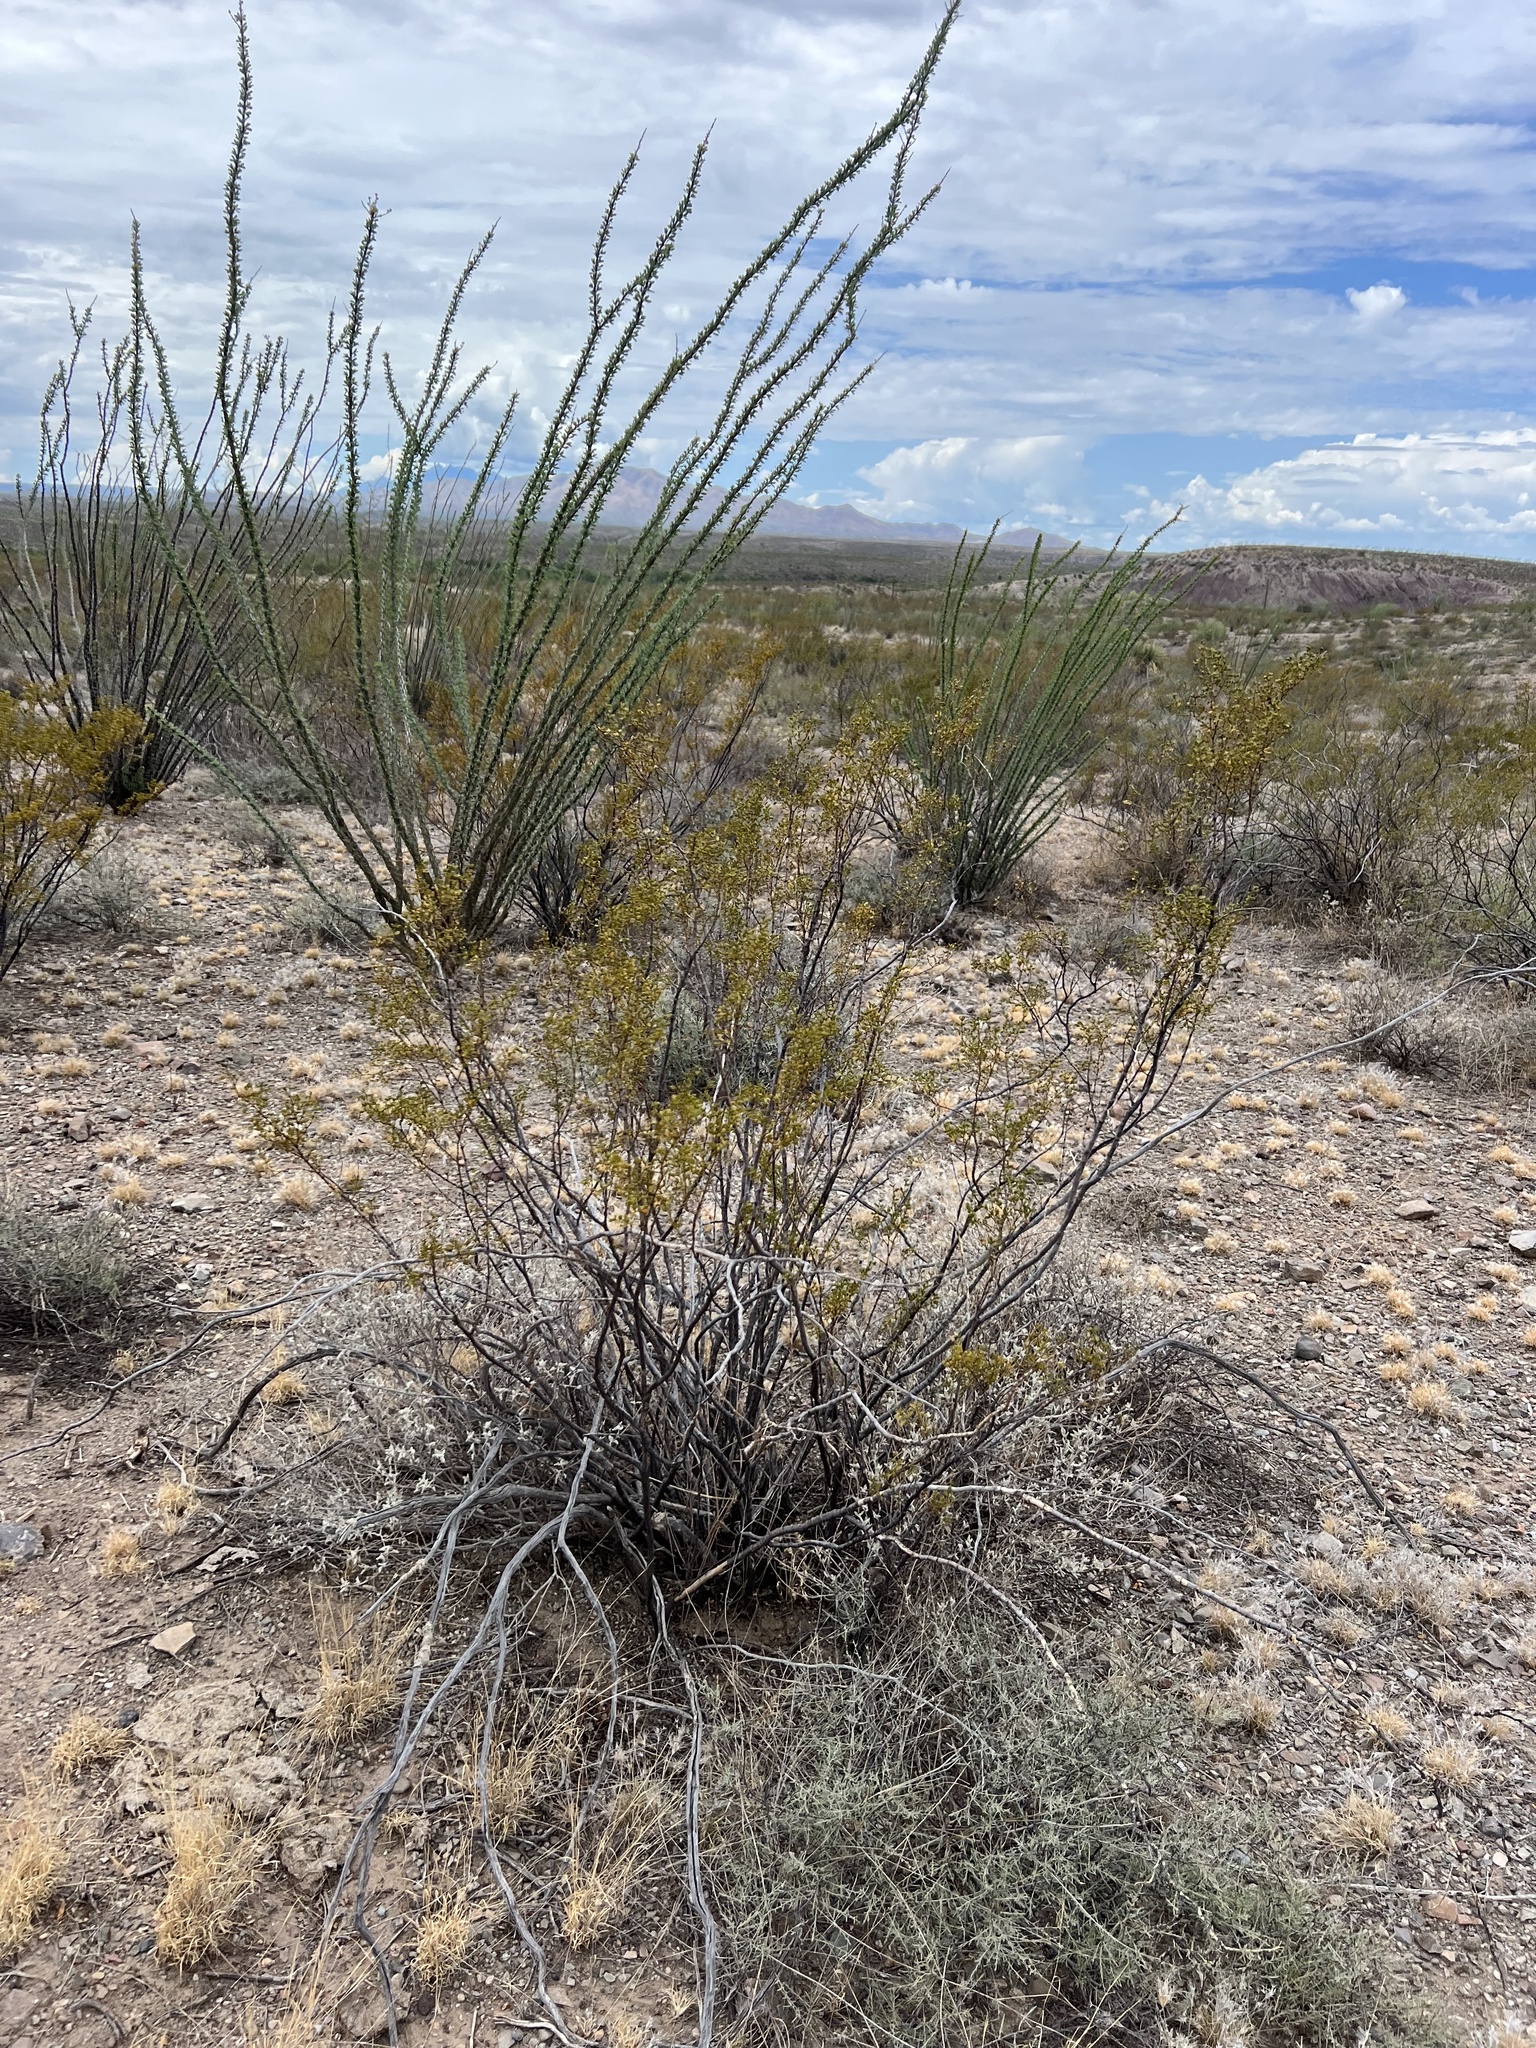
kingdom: Plantae
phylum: Tracheophyta
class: Magnoliopsida
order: Ericales
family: Fouquieriaceae
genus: Fouquieria
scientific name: Fouquieria splendens
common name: Vine-cactus
